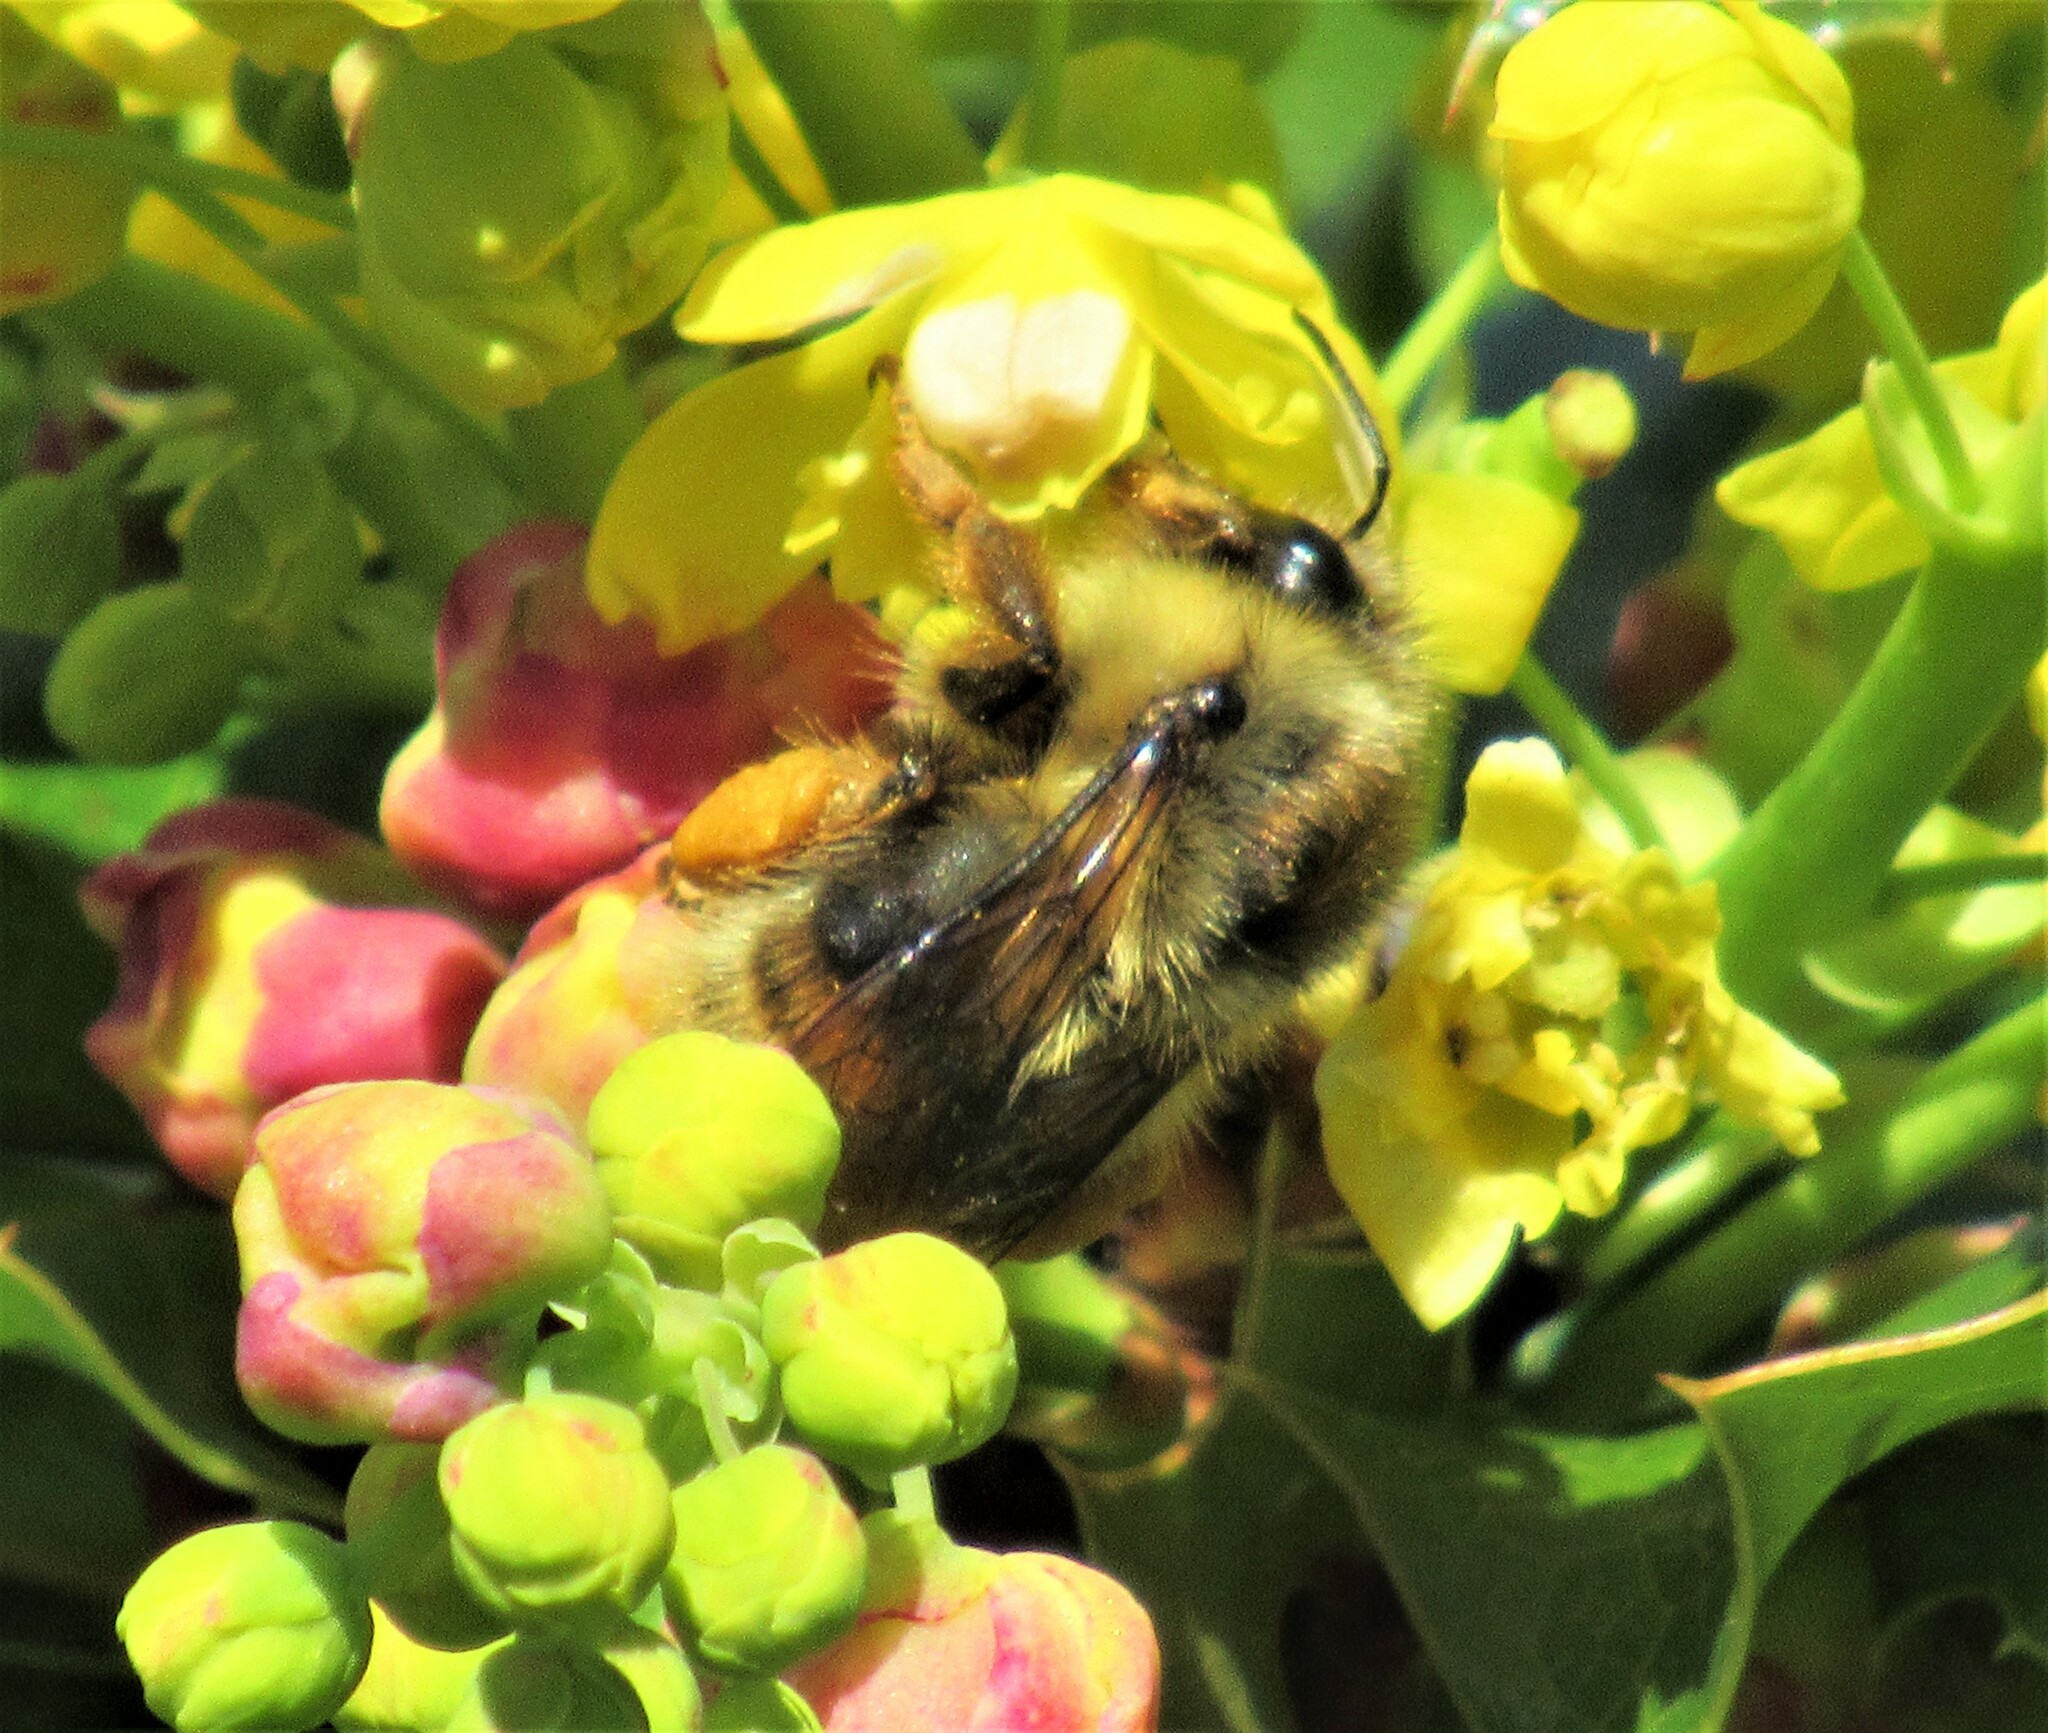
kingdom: Animalia
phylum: Arthropoda
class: Insecta
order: Hymenoptera
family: Apidae
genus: Bombus
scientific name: Bombus mixtus
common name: Fuzzy-horned bumble bee
